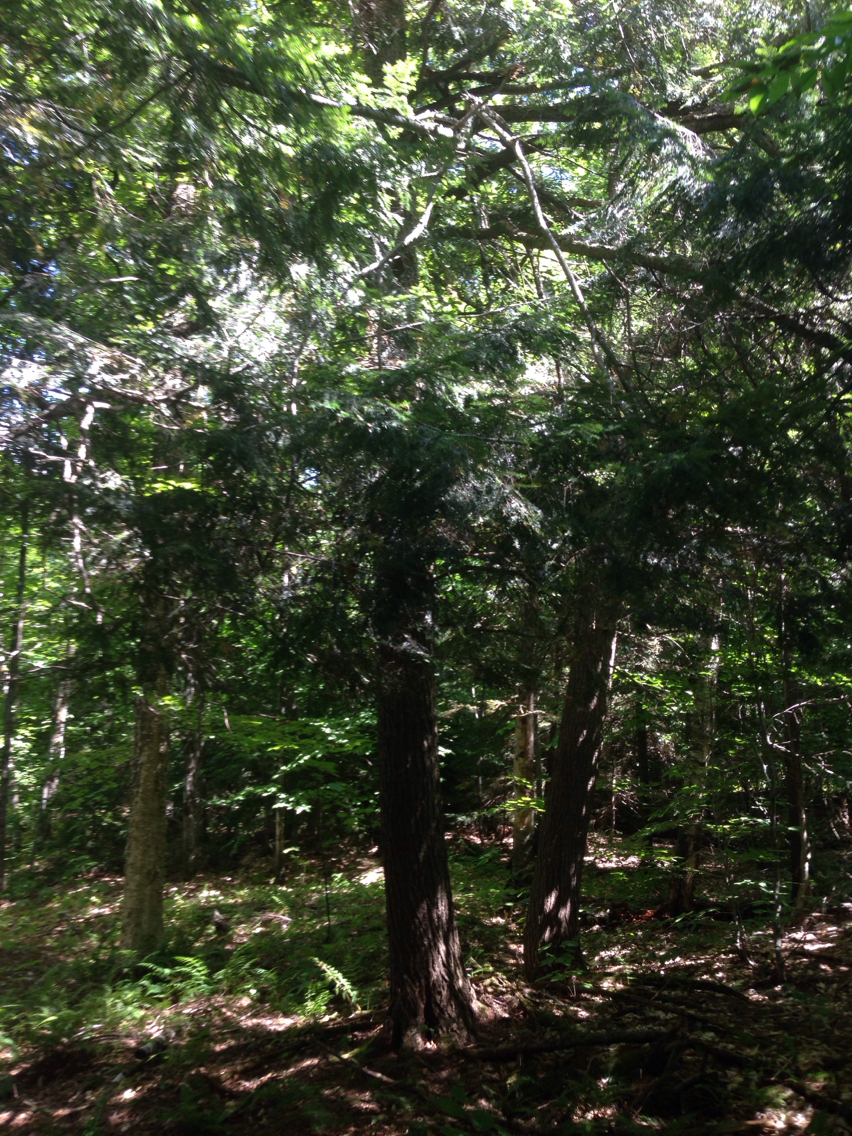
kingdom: Plantae
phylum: Tracheophyta
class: Pinopsida
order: Pinales
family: Pinaceae
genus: Tsuga
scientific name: Tsuga canadensis
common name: Eastern hemlock
